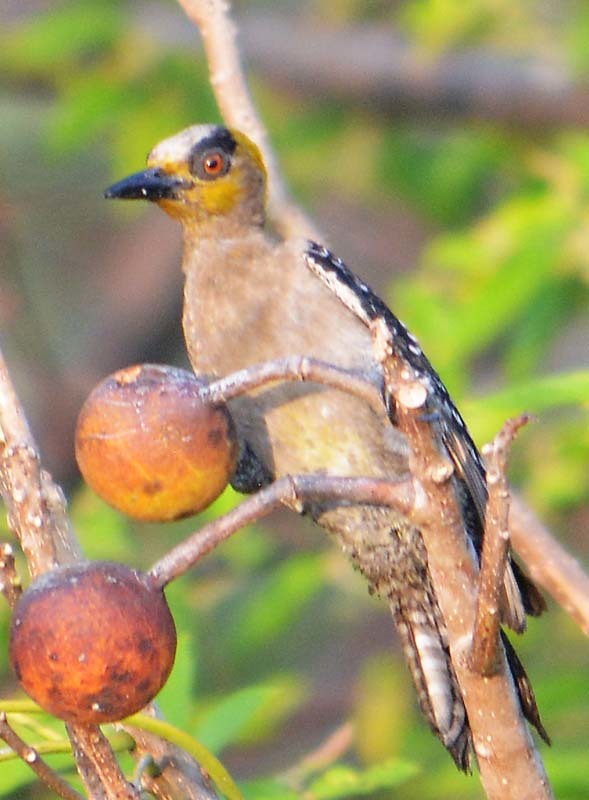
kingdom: Animalia
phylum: Chordata
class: Aves
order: Piciformes
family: Picidae
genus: Melanerpes
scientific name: Melanerpes chrysogenys
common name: Golden-cheeked woodpecker
